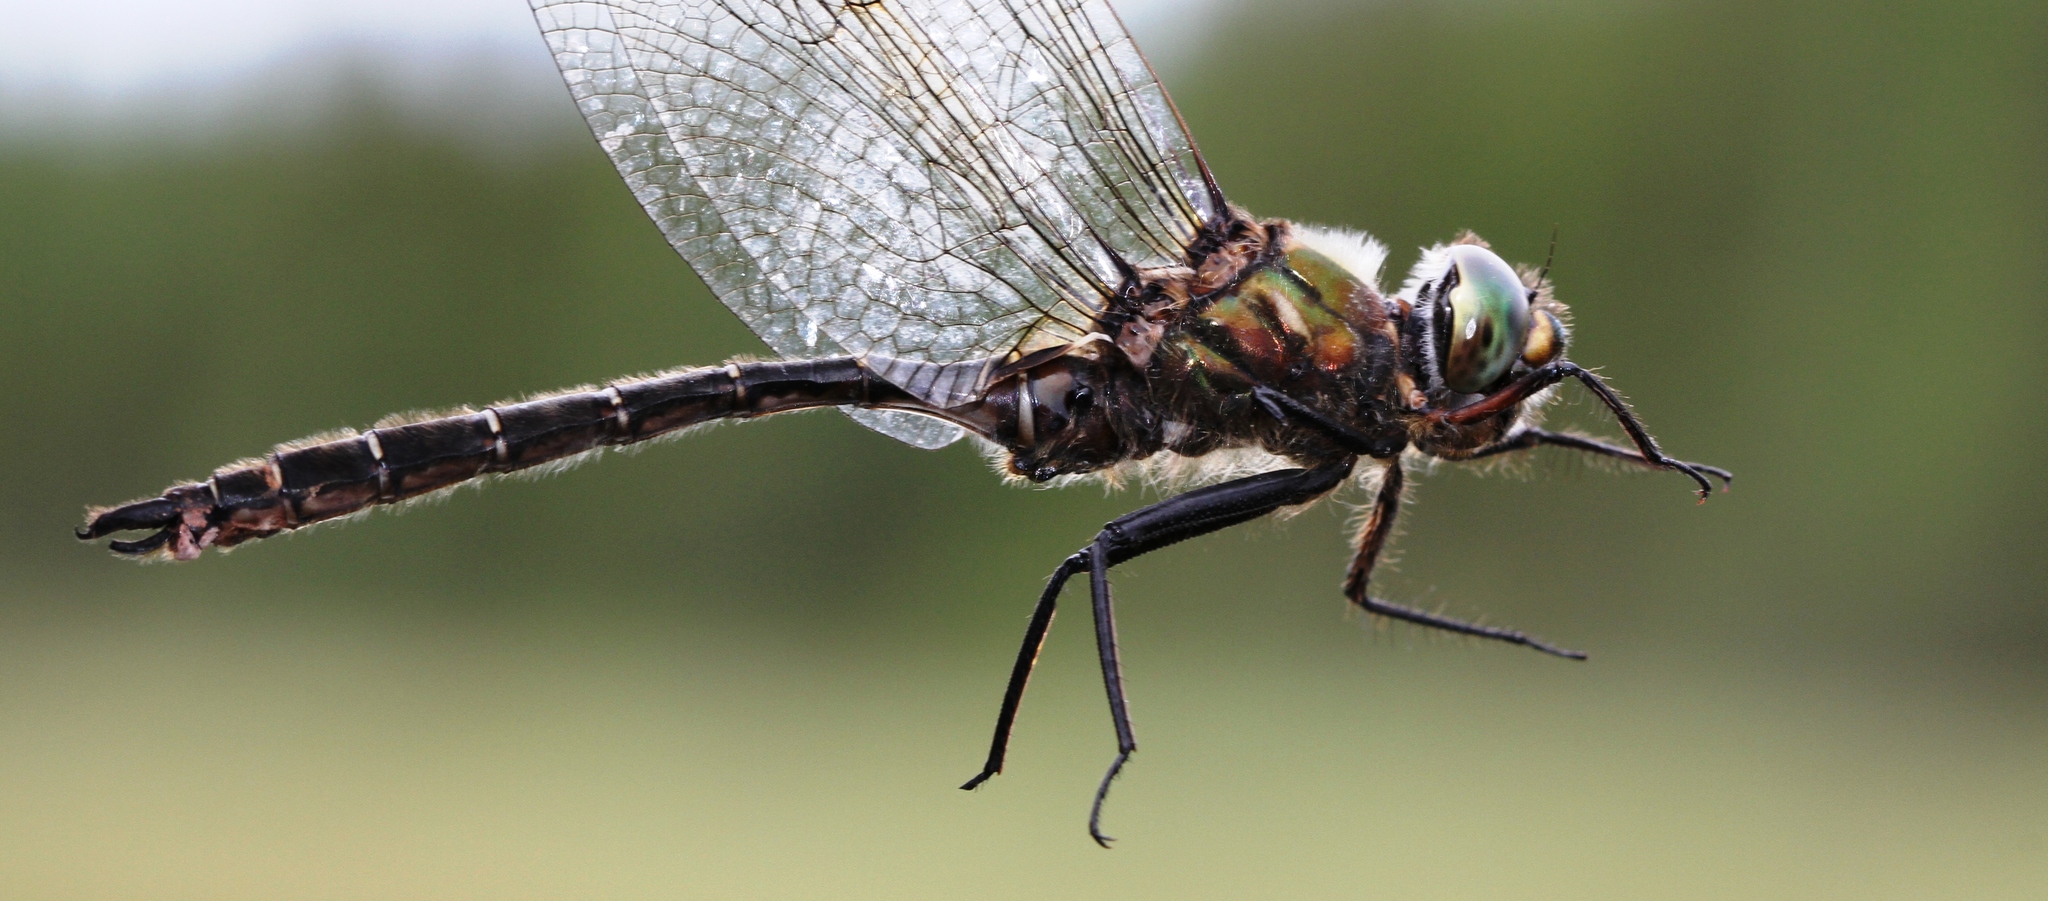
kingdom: Animalia
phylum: Arthropoda
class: Insecta
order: Odonata
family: Corduliidae
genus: Somatochlora
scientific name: Somatochlora albicincta
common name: Ringed emerald
